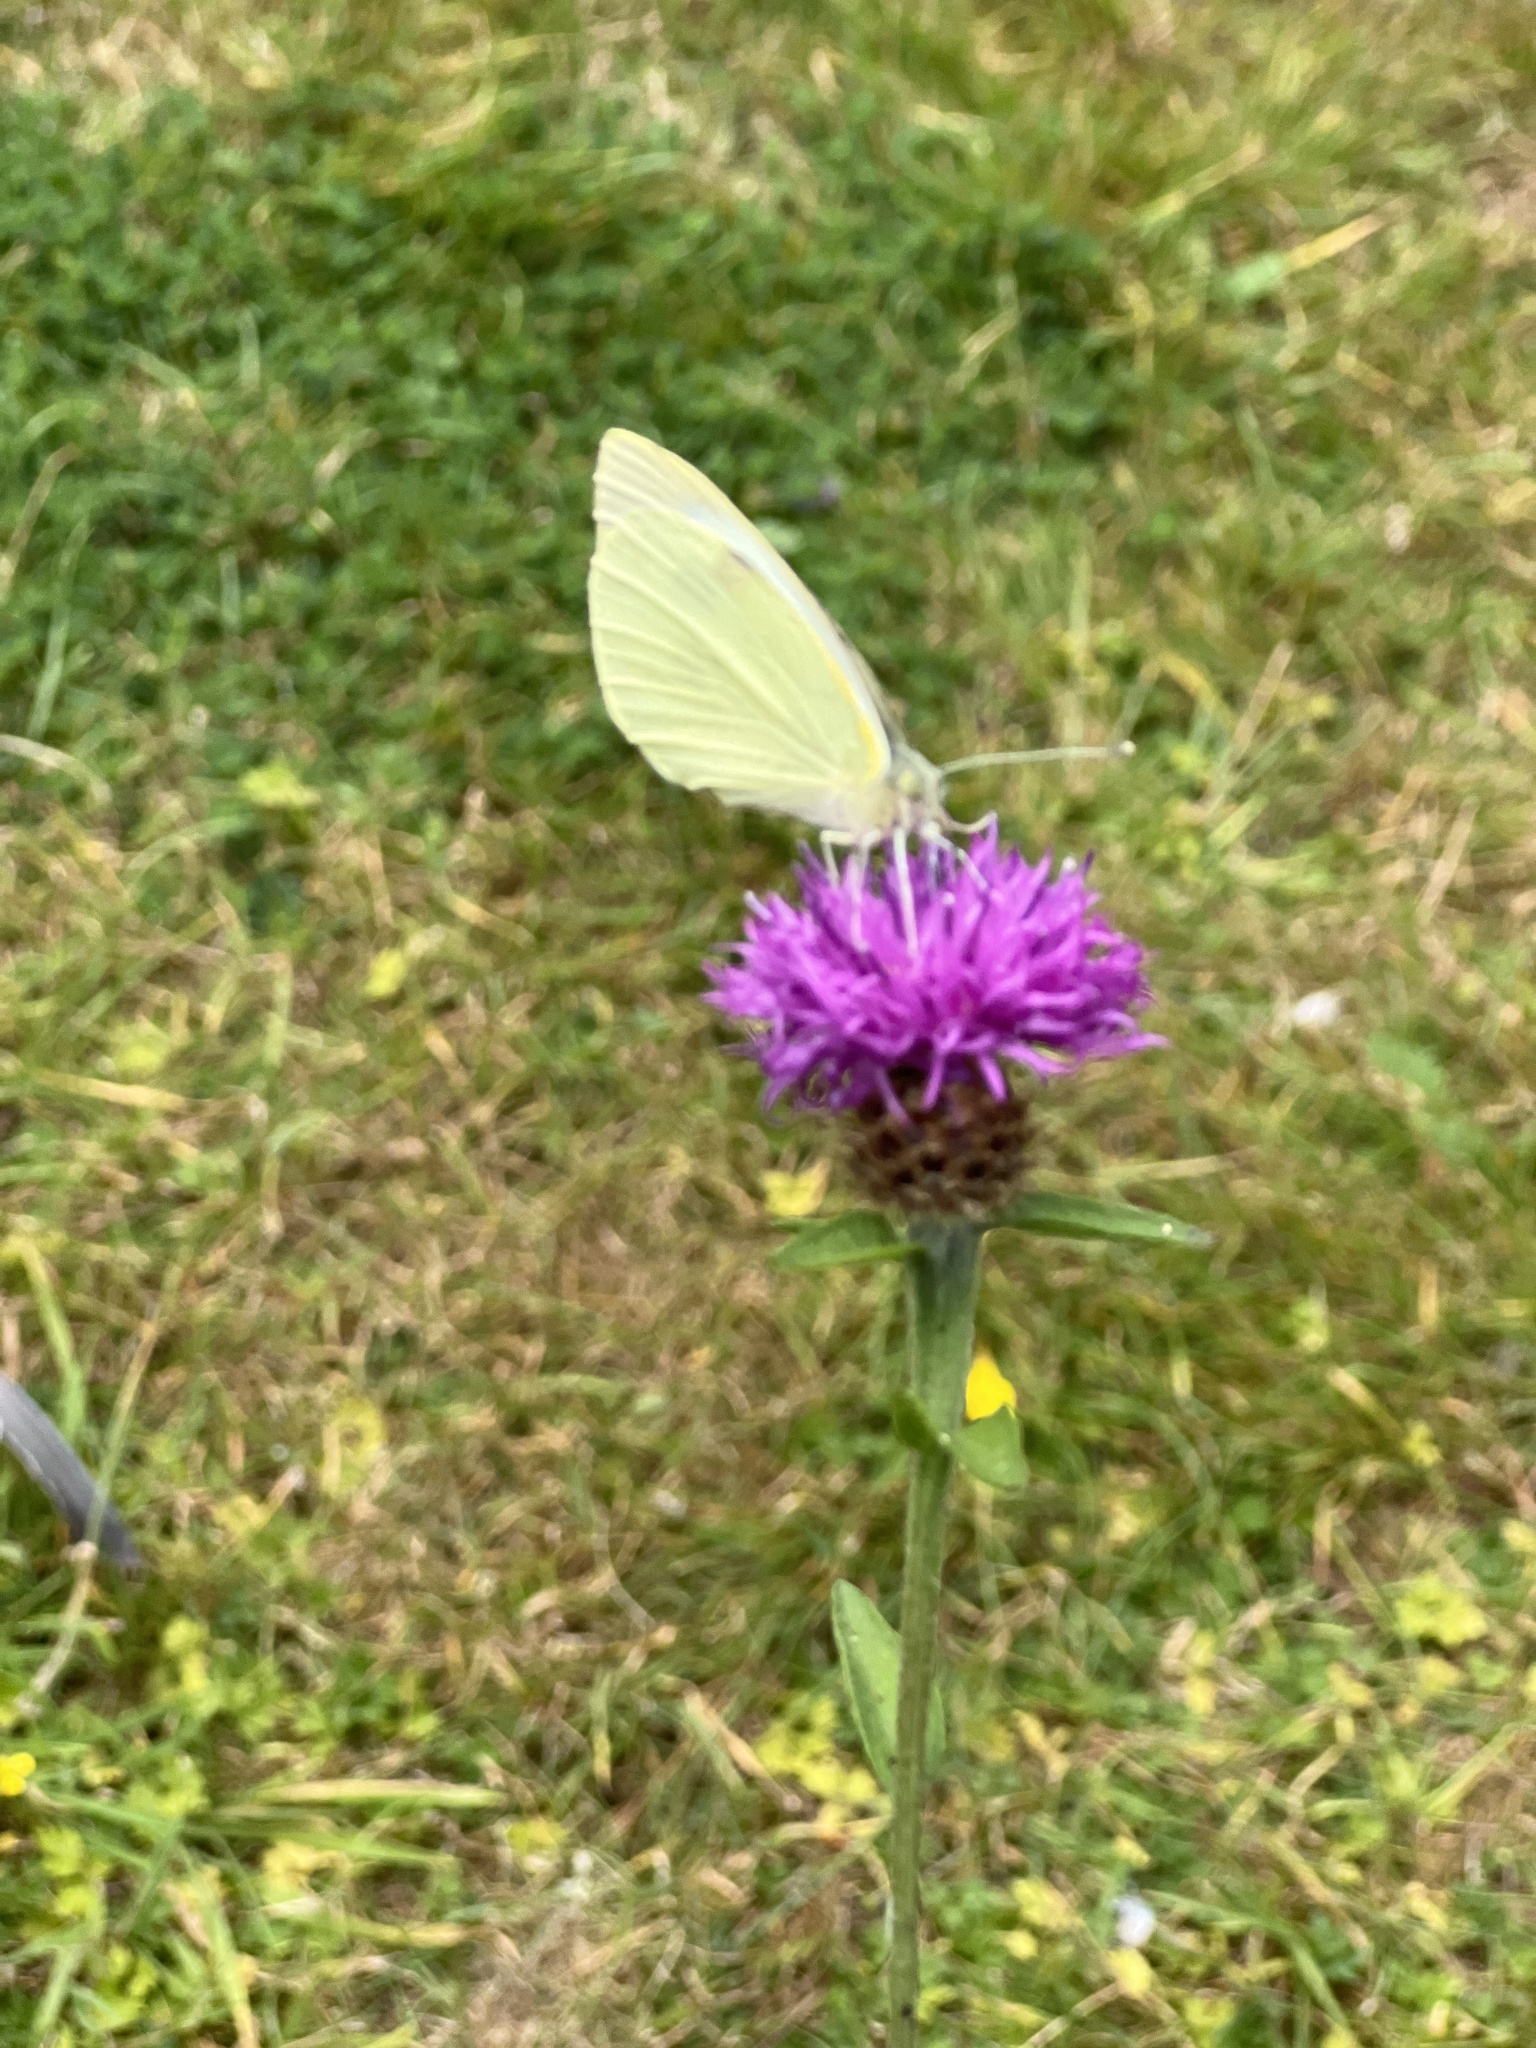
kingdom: Animalia
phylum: Arthropoda
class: Insecta
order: Lepidoptera
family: Pieridae
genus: Pieris
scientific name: Pieris brassicae
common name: Large white
